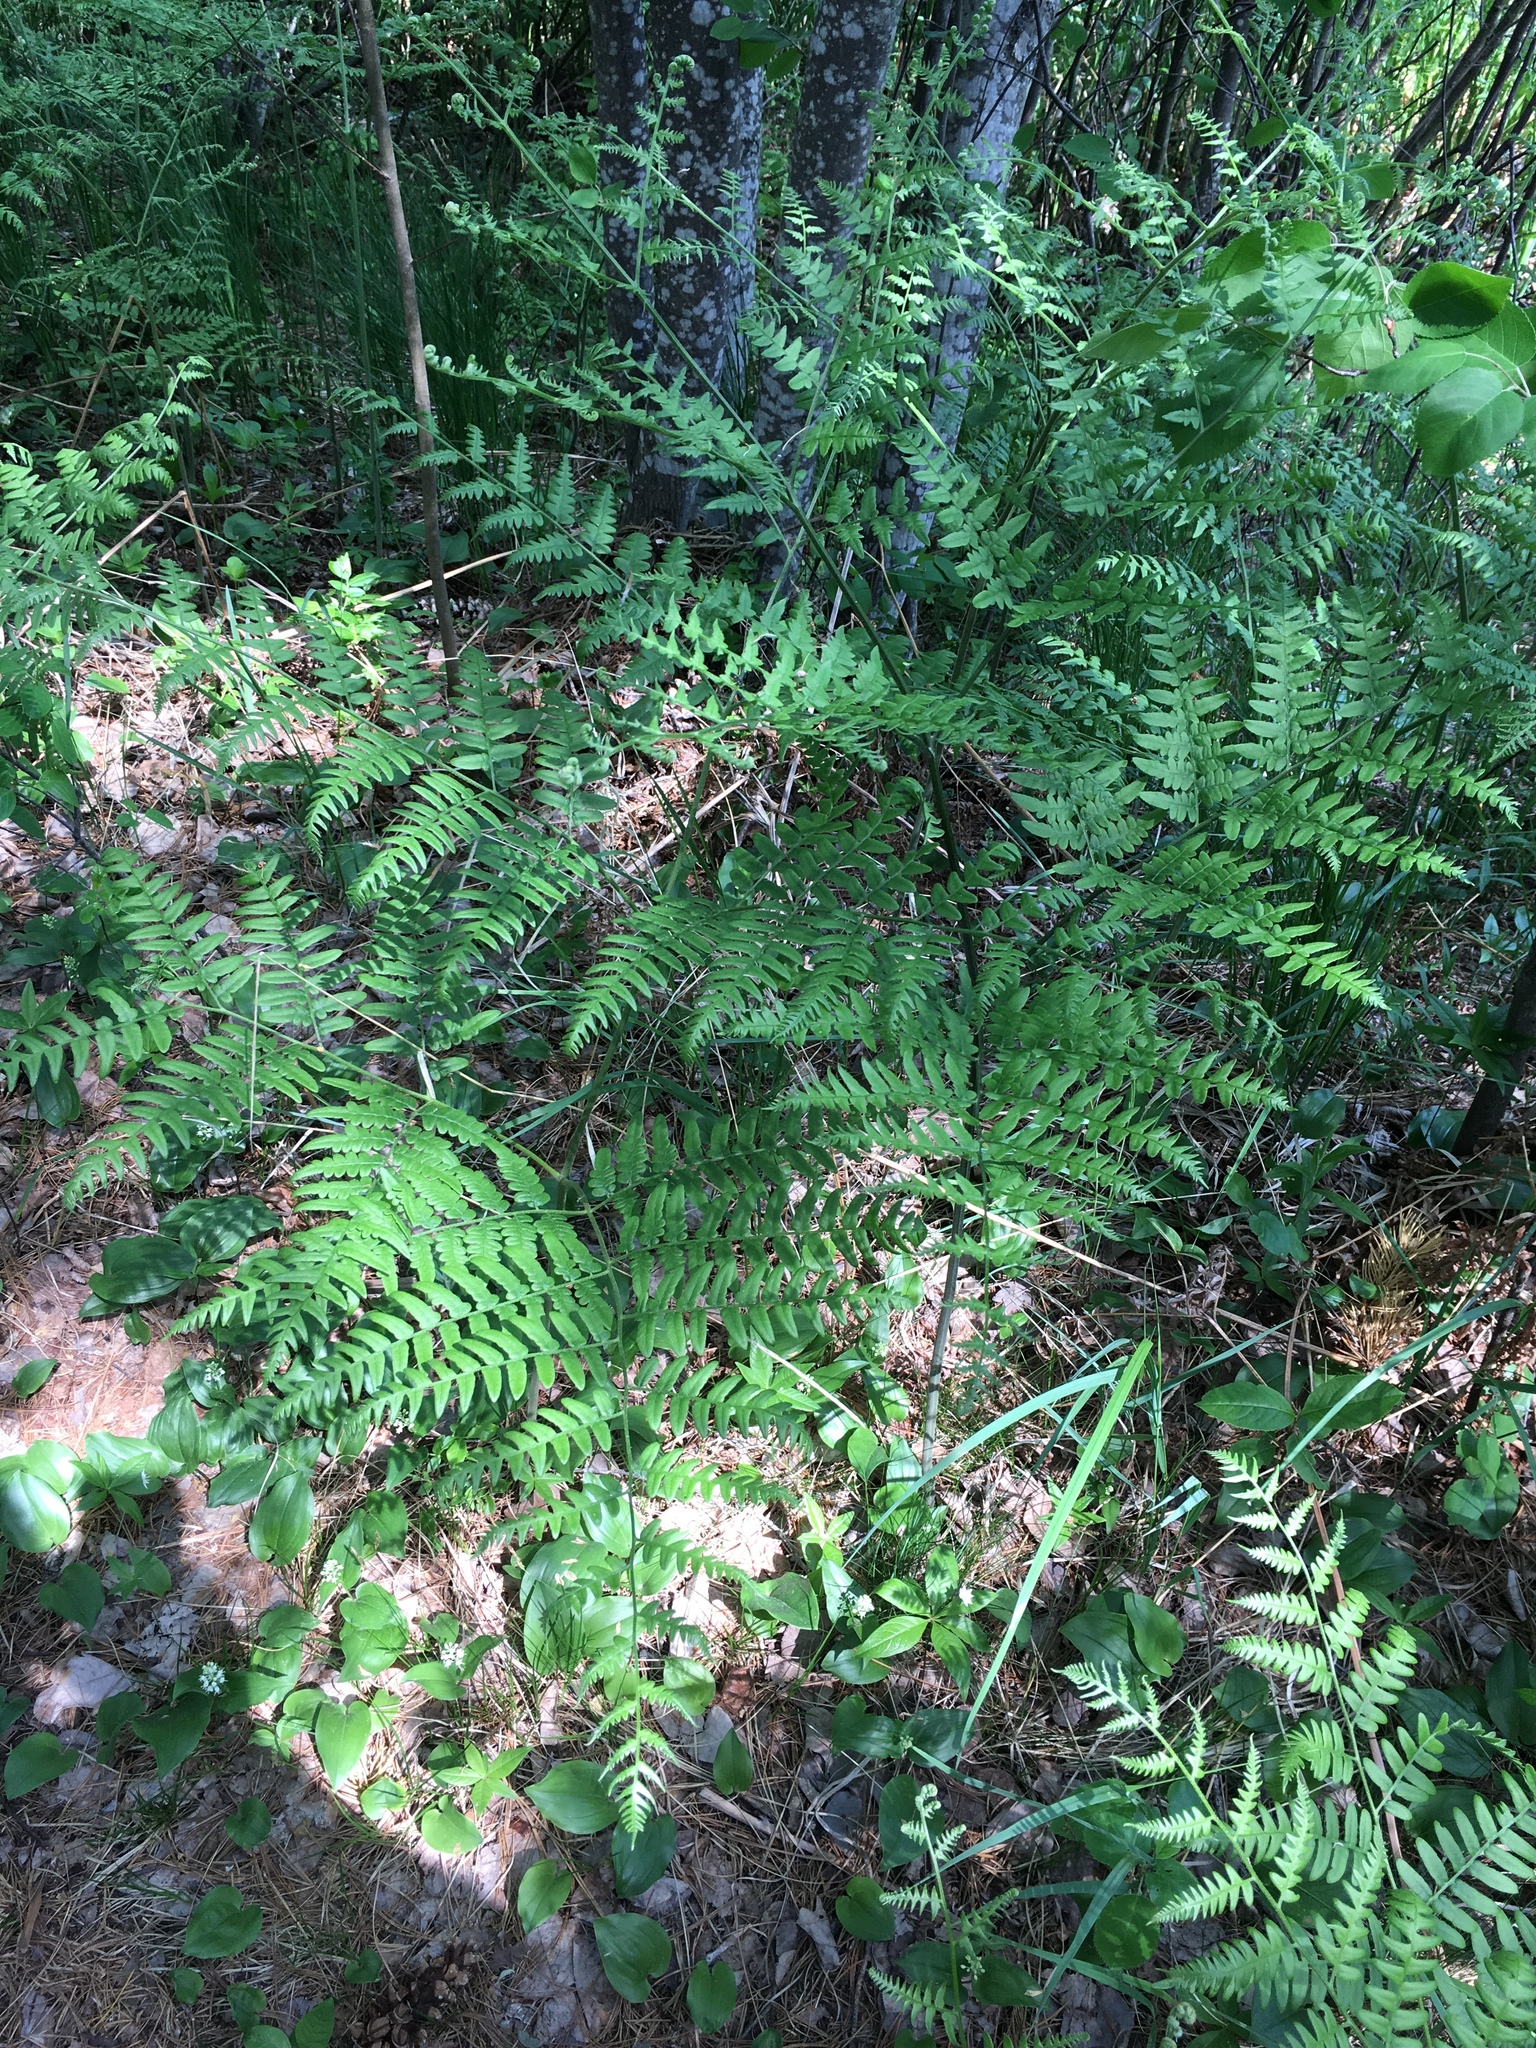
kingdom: Plantae
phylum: Tracheophyta
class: Polypodiopsida
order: Polypodiales
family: Dennstaedtiaceae
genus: Pteridium
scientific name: Pteridium aquilinum
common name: Bracken
